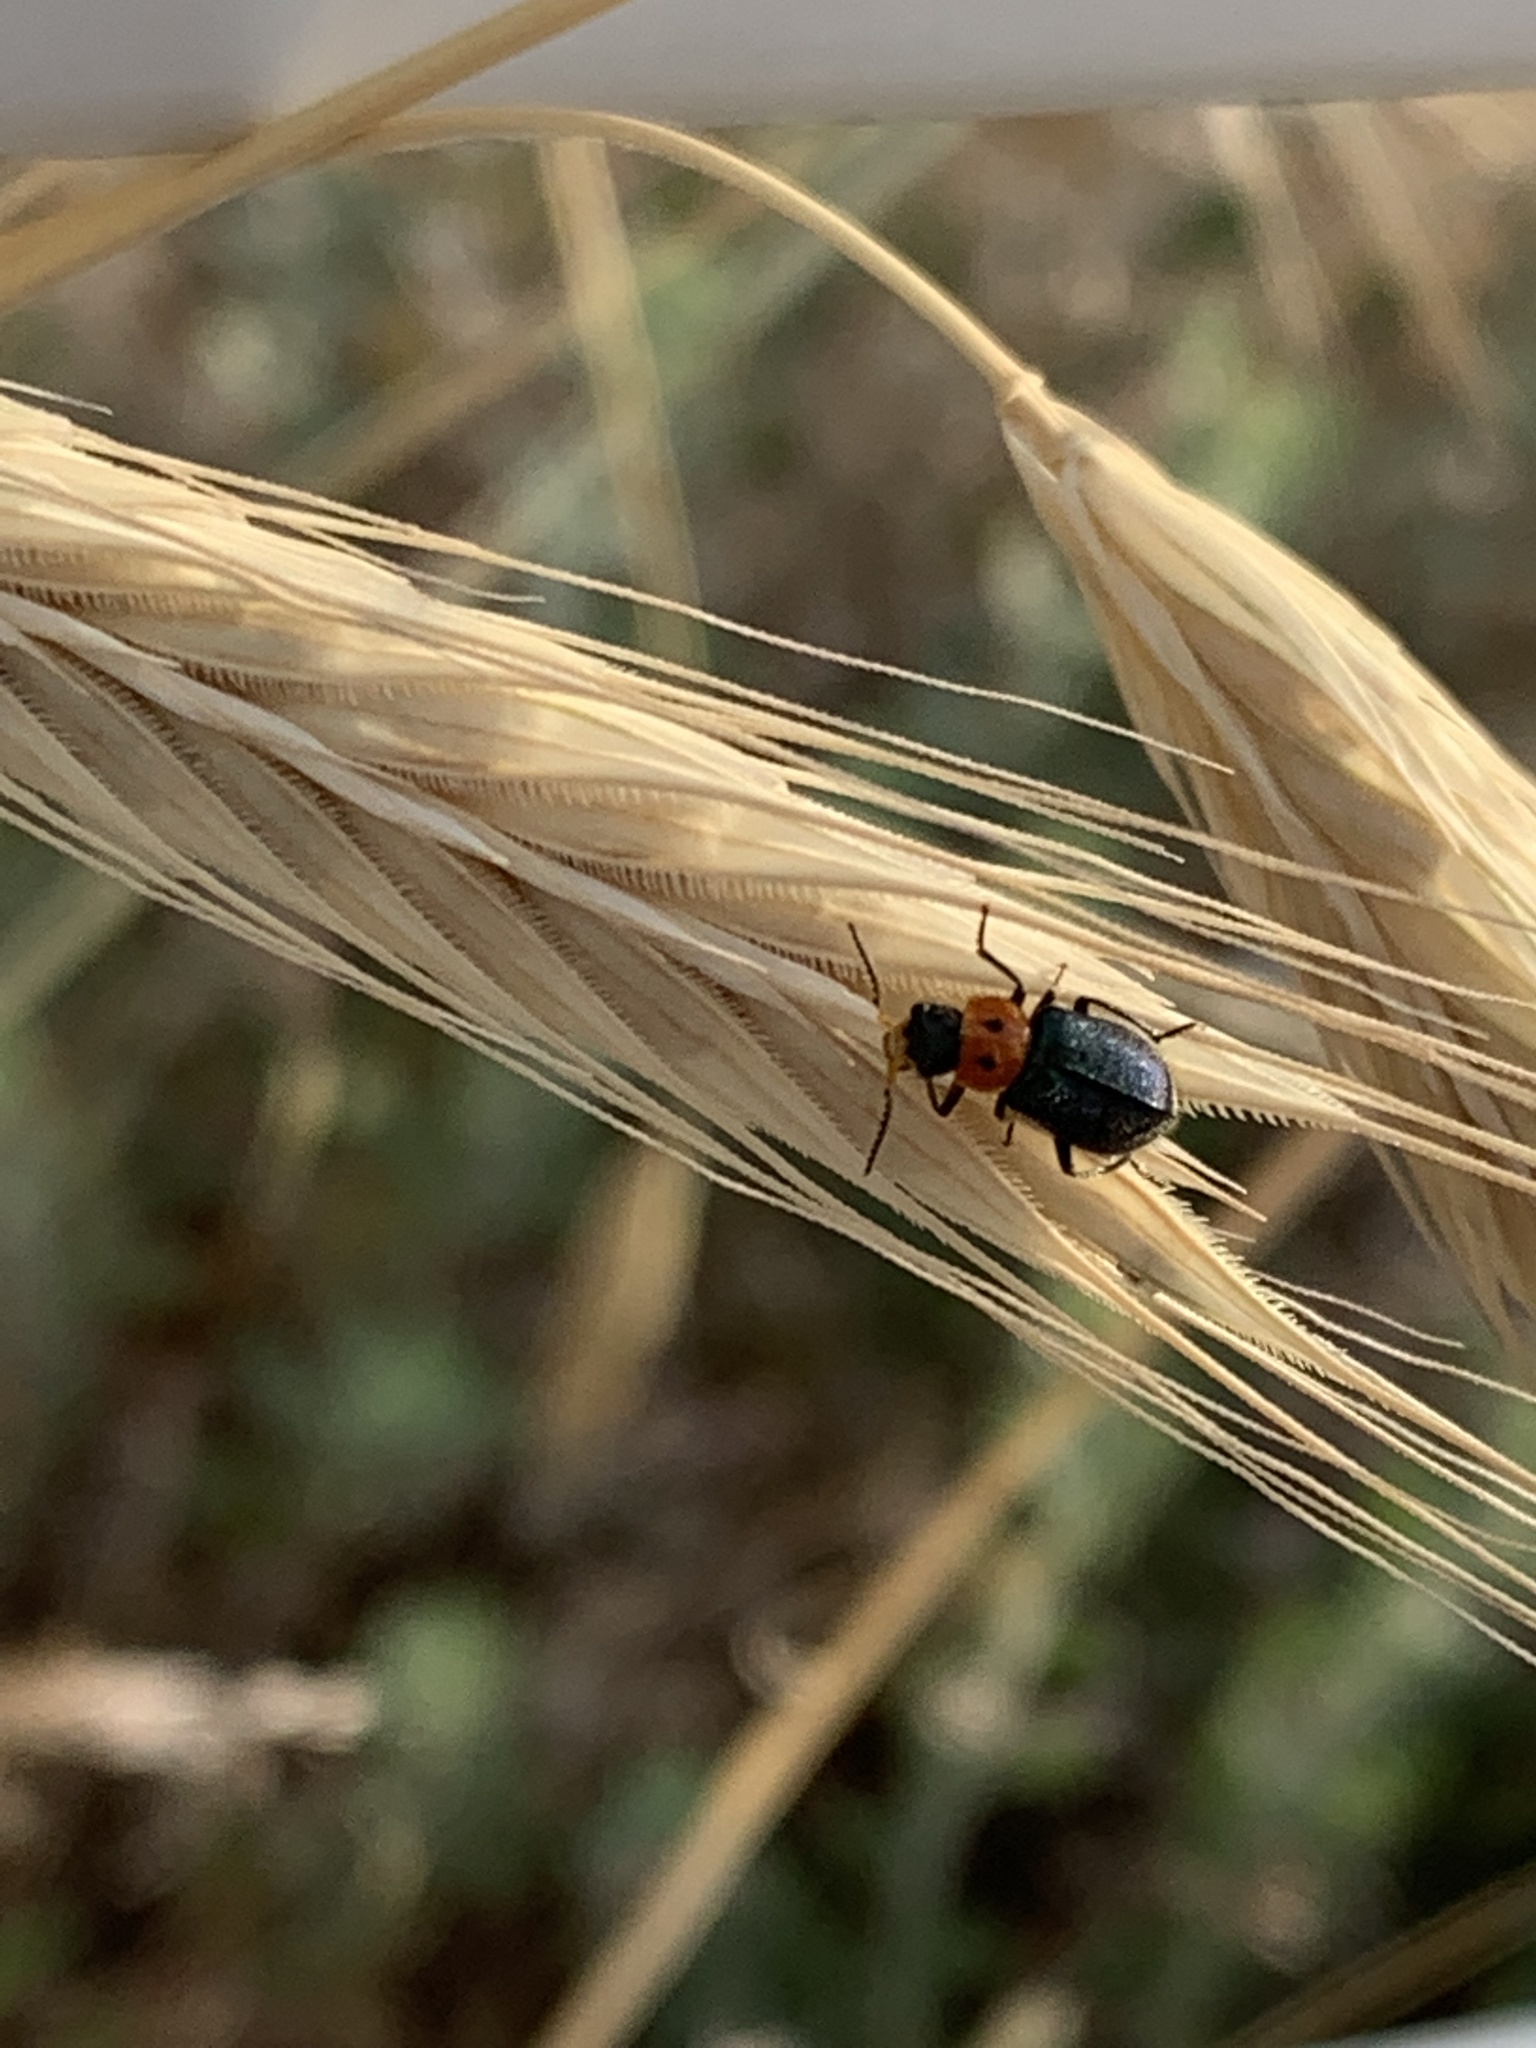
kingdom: Animalia
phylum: Arthropoda
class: Insecta
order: Coleoptera
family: Melyridae
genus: Collops
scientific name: Collops bipunctatus
